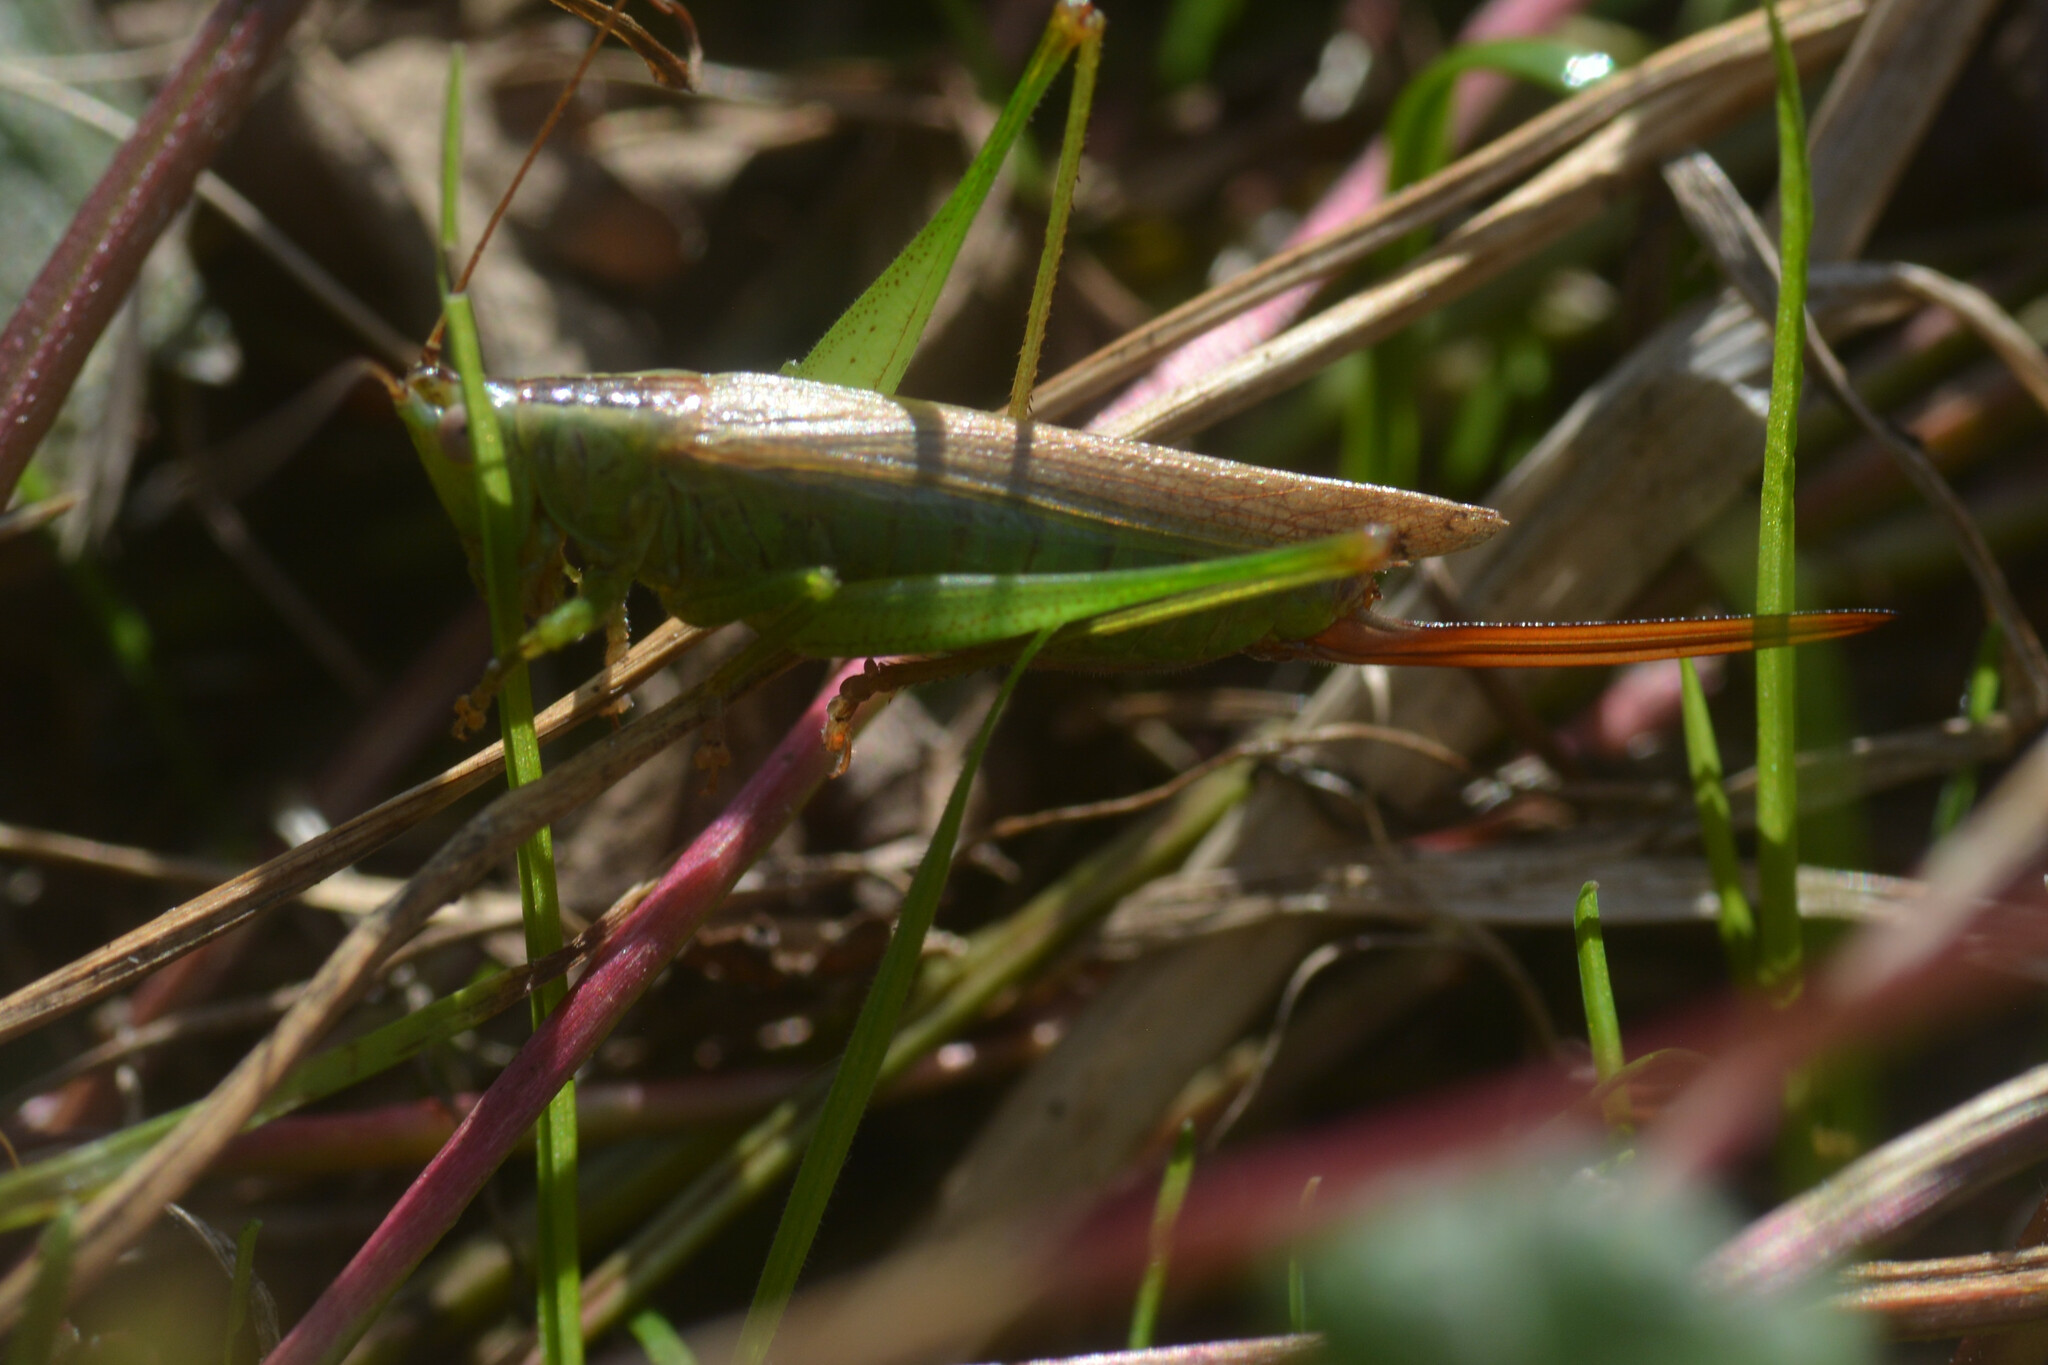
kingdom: Animalia
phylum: Arthropoda
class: Insecta
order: Orthoptera
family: Tettigoniidae
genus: Conocephalus
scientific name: Conocephalus fuscus
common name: Long-winged conehead
